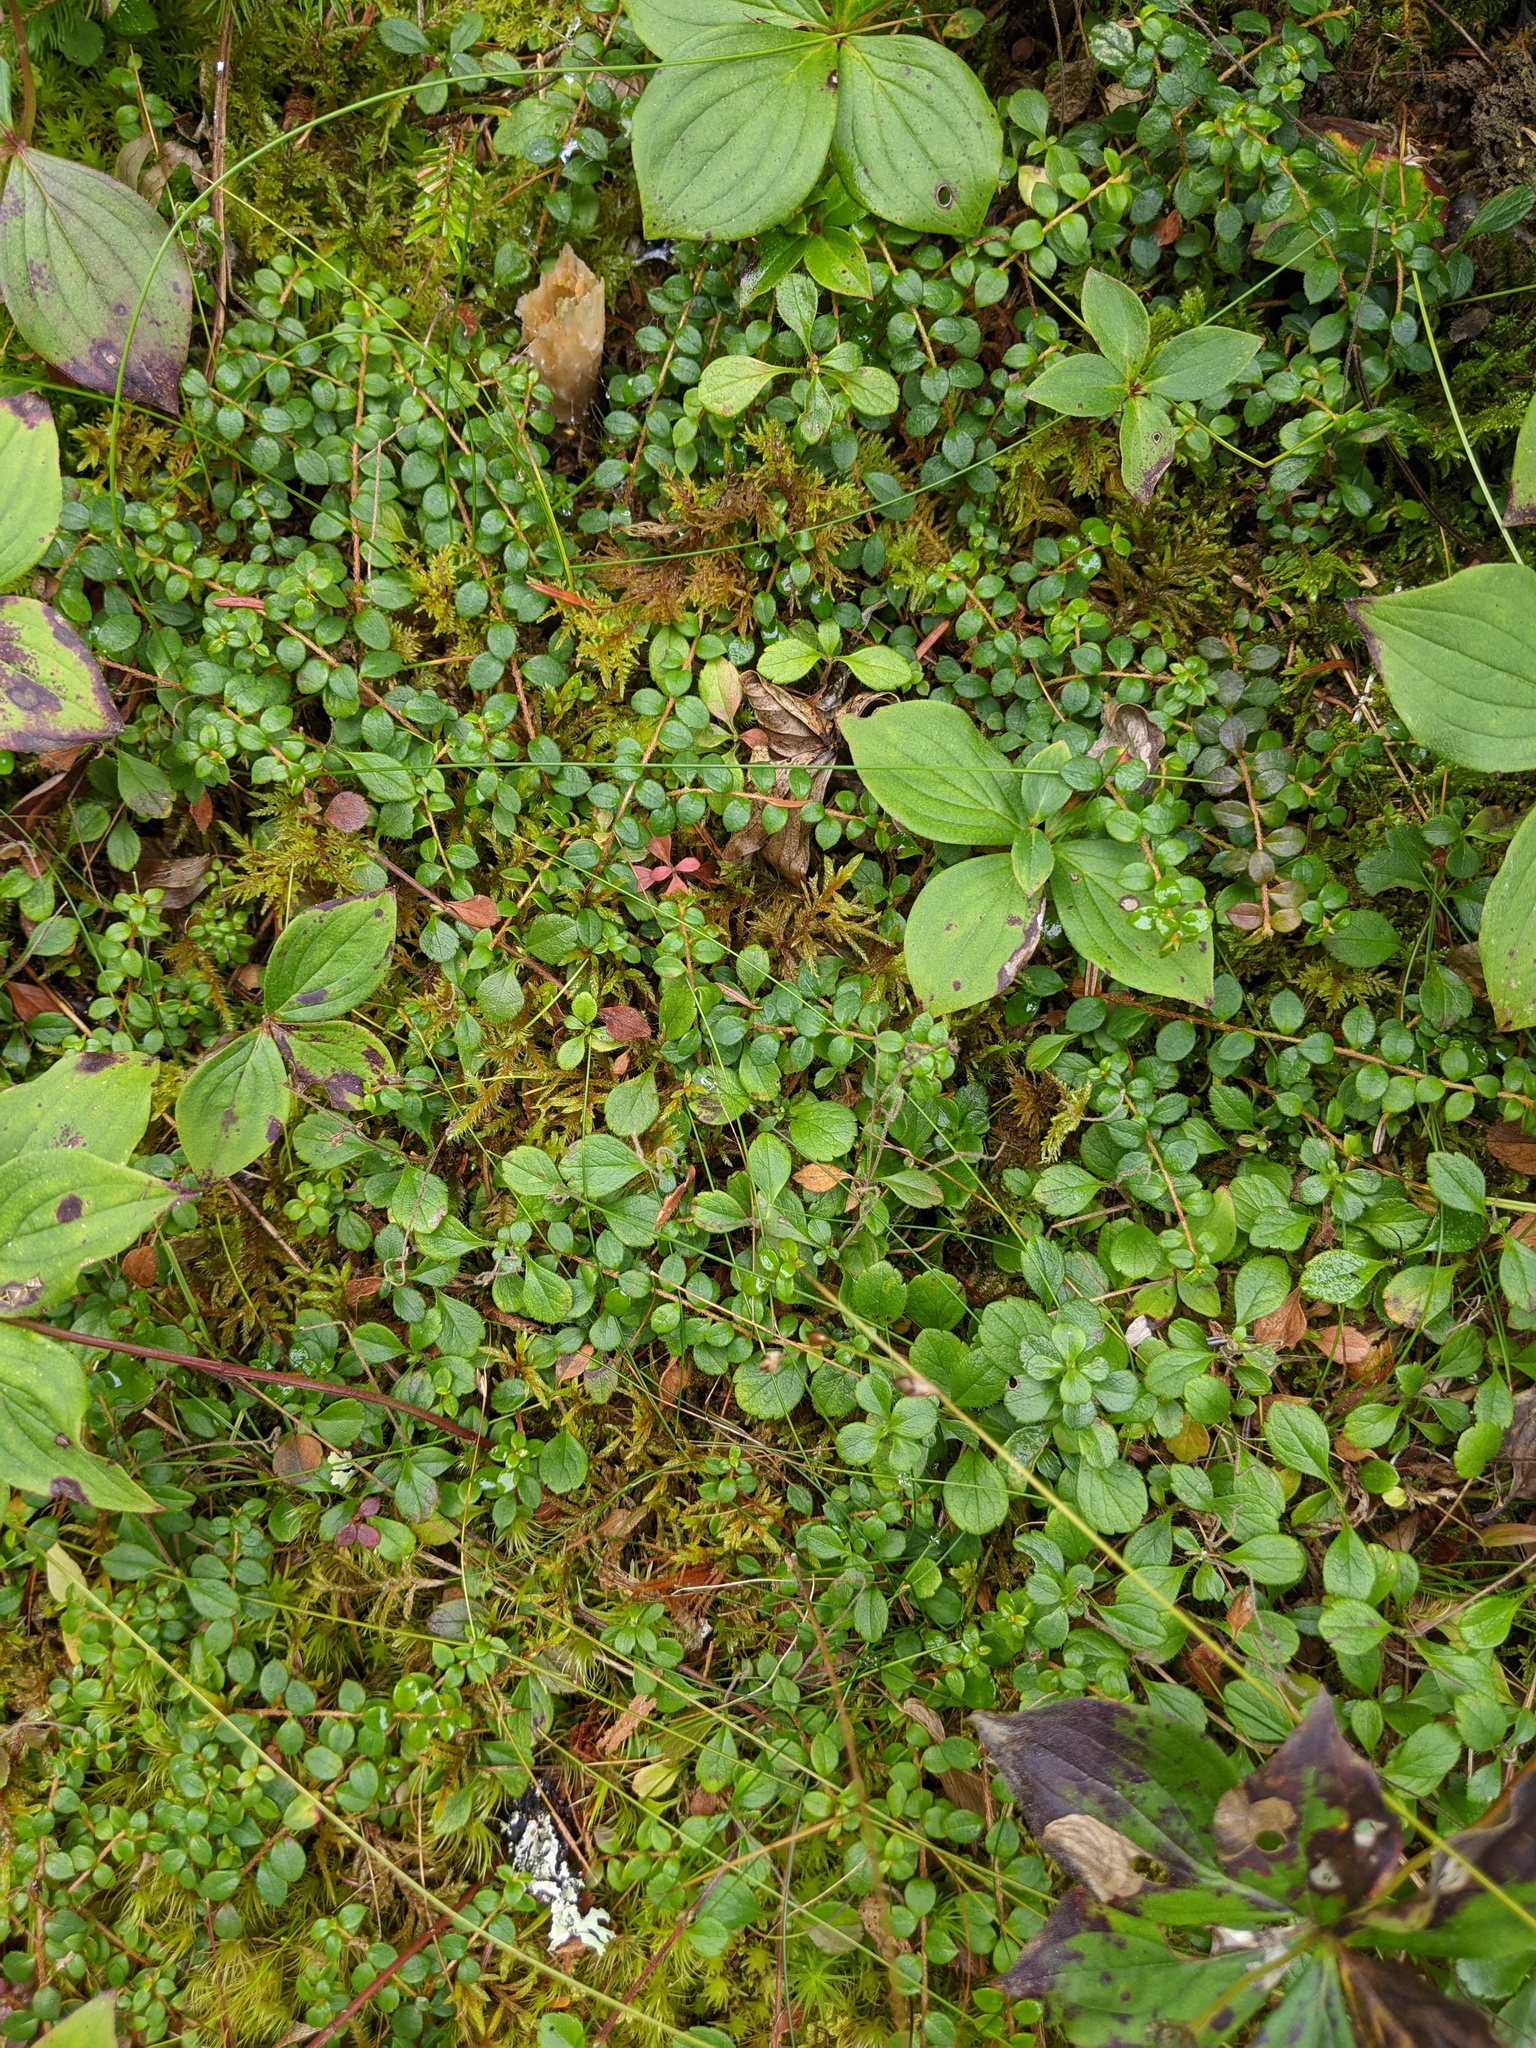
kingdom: Plantae
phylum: Tracheophyta
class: Magnoliopsida
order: Ericales
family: Ericaceae
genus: Gaultheria
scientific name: Gaultheria hispidula
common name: Cancer wintergreen
